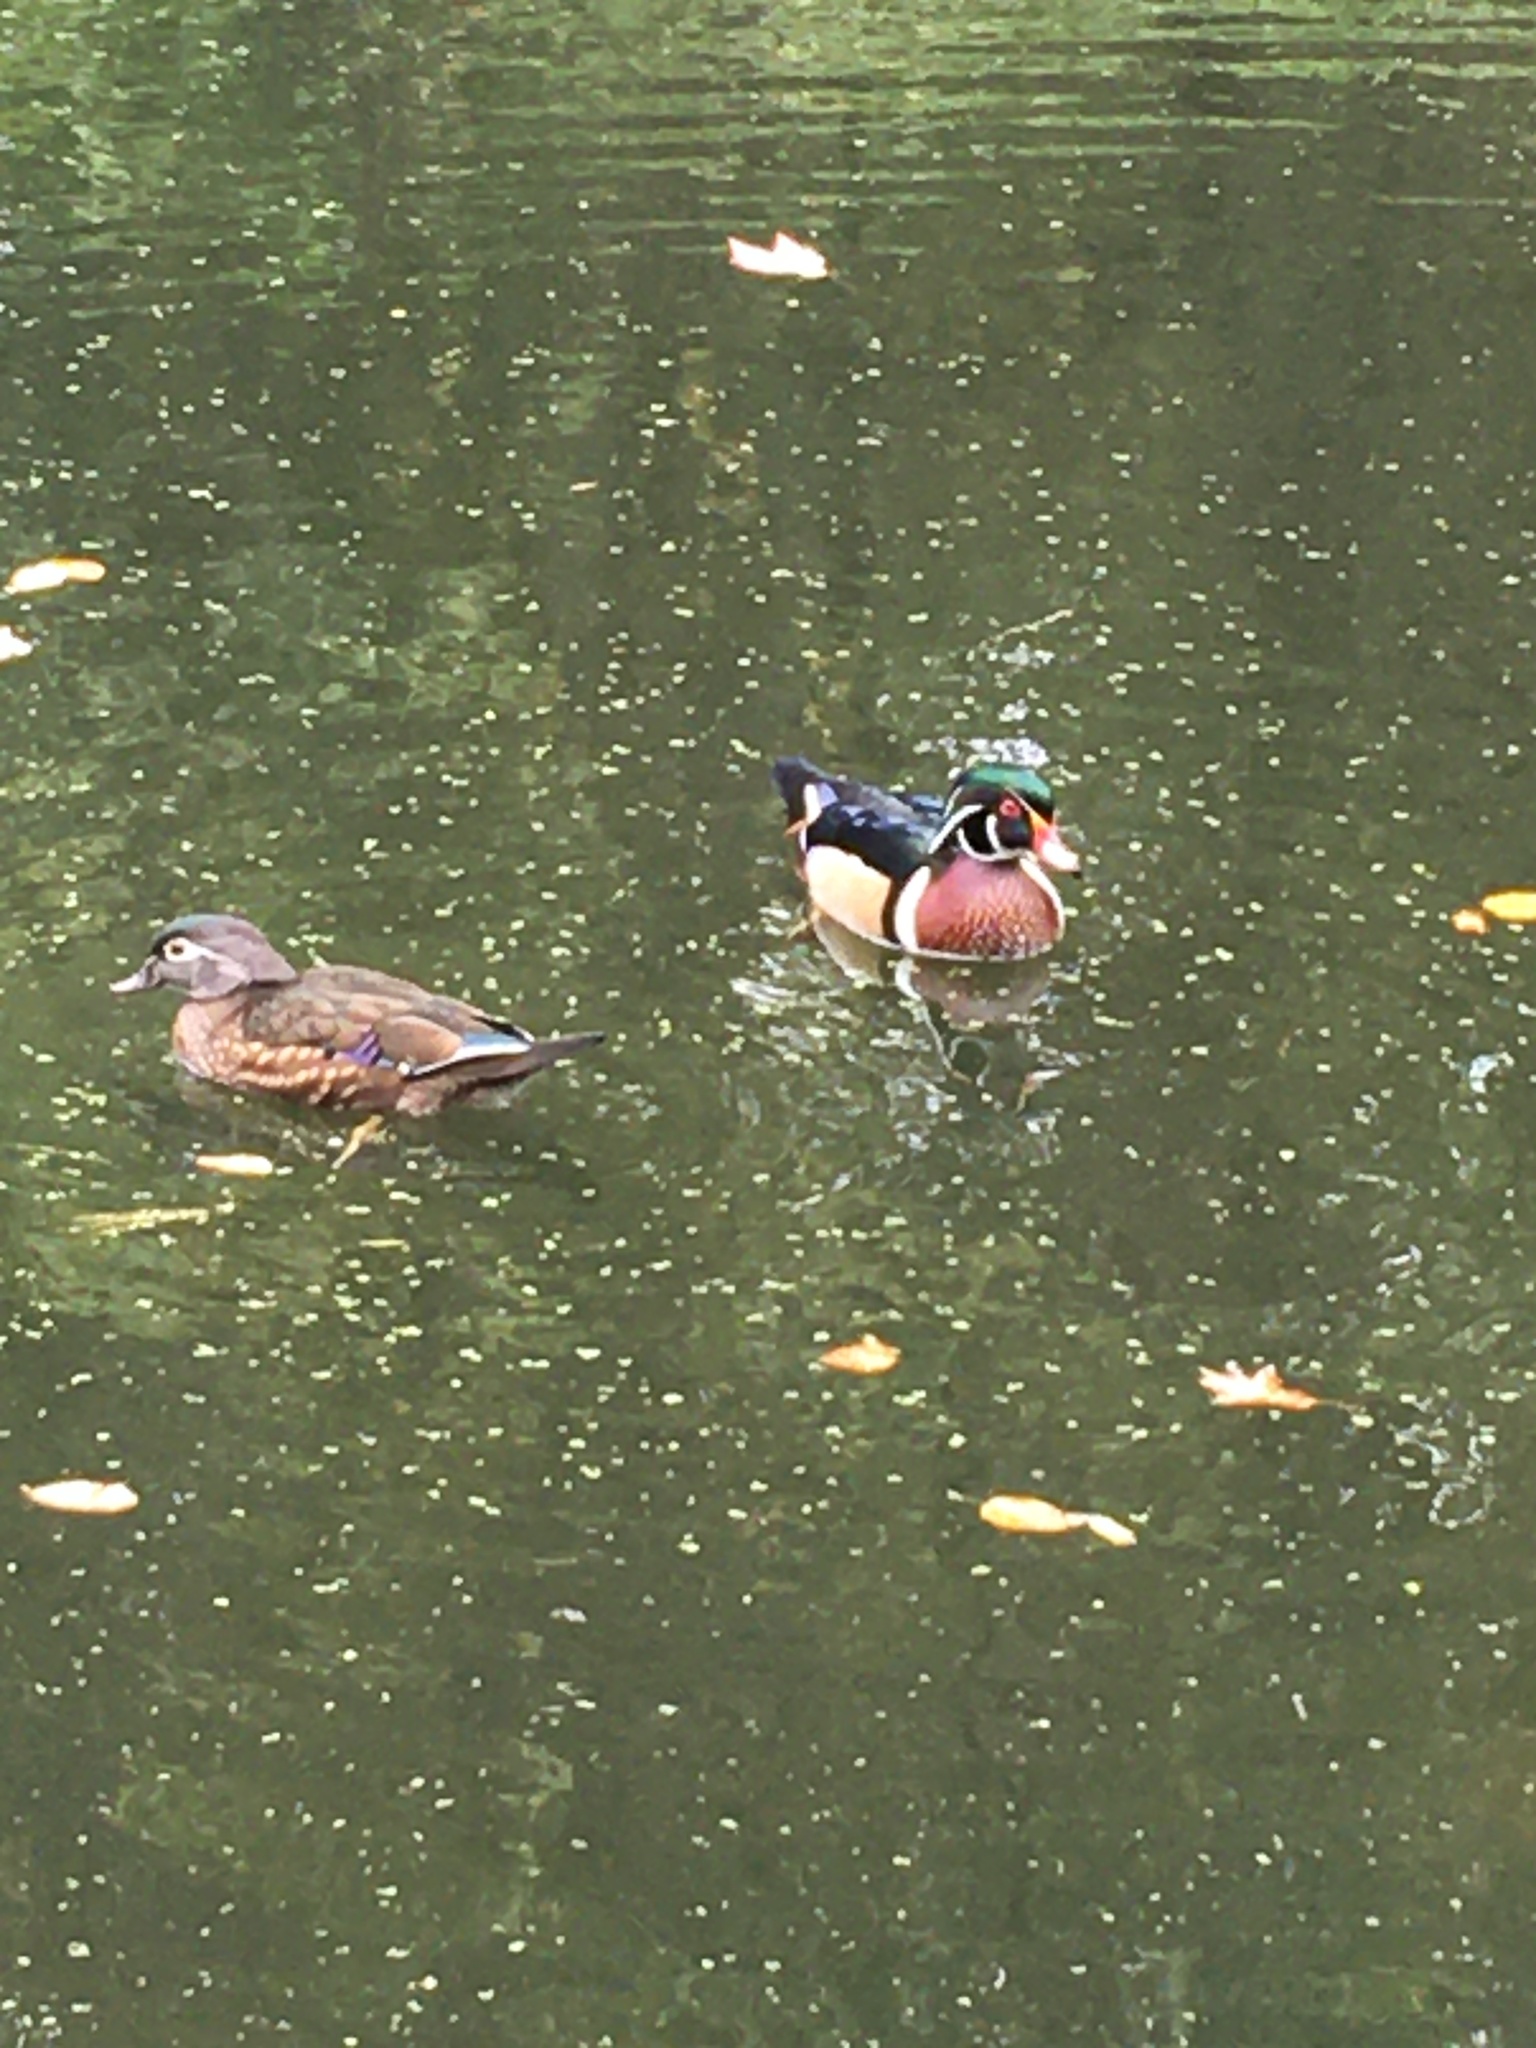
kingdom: Animalia
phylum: Chordata
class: Aves
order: Anseriformes
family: Anatidae
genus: Aix
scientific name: Aix sponsa
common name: Wood duck
